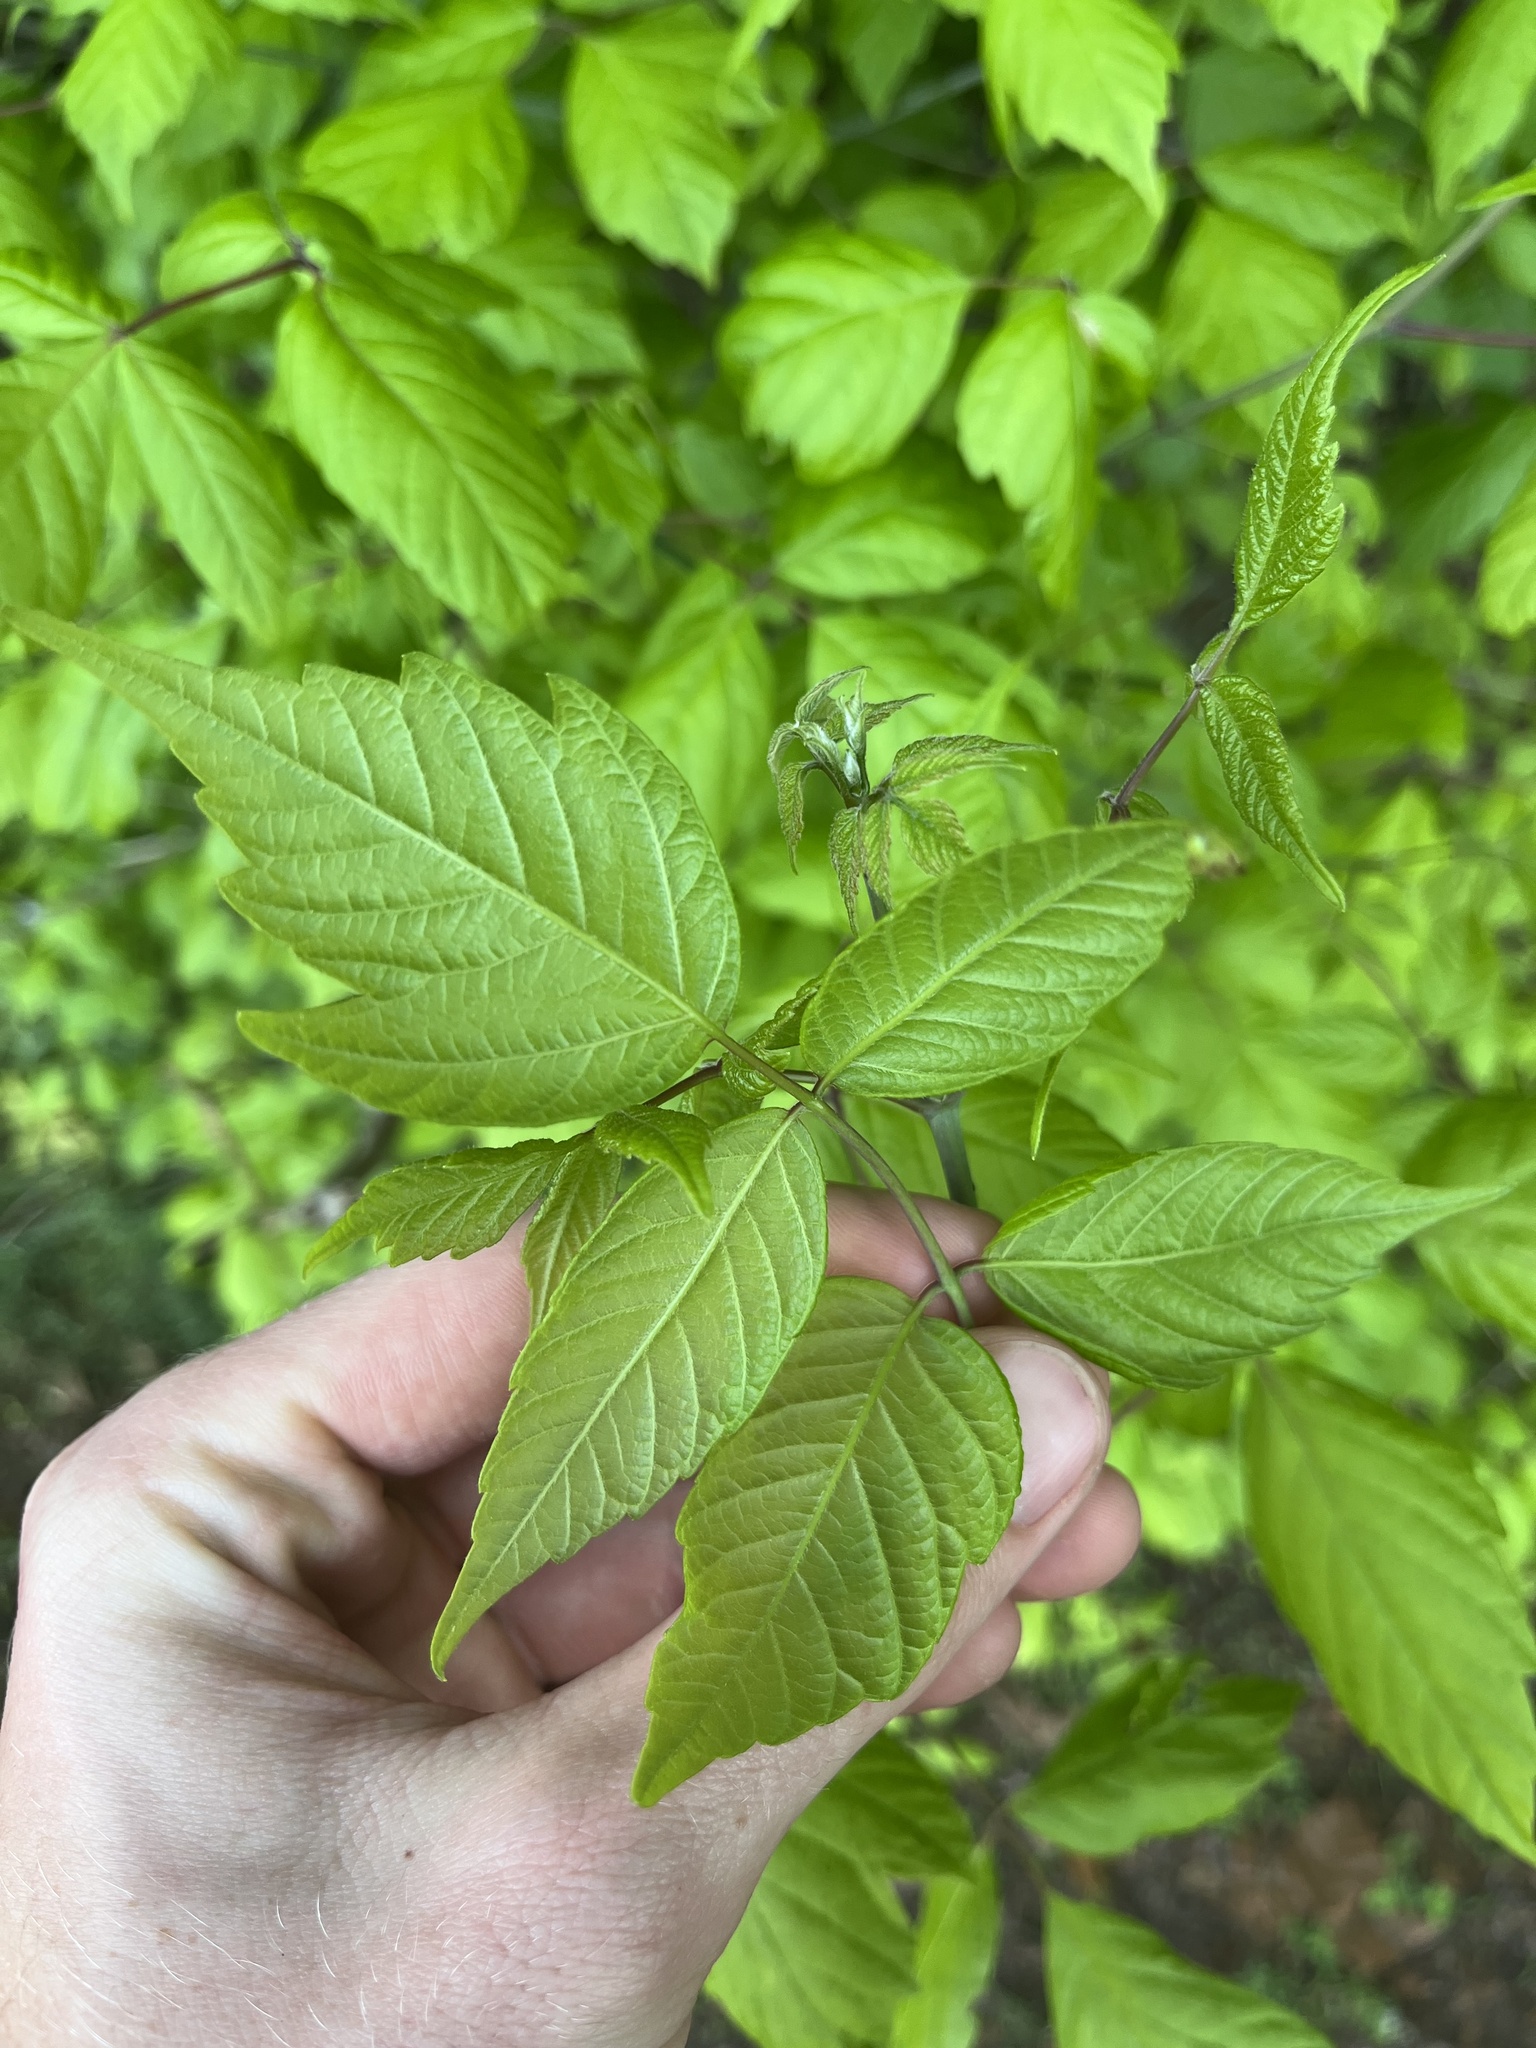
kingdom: Plantae
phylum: Tracheophyta
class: Magnoliopsida
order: Sapindales
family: Sapindaceae
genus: Acer
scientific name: Acer negundo
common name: Ashleaf maple
